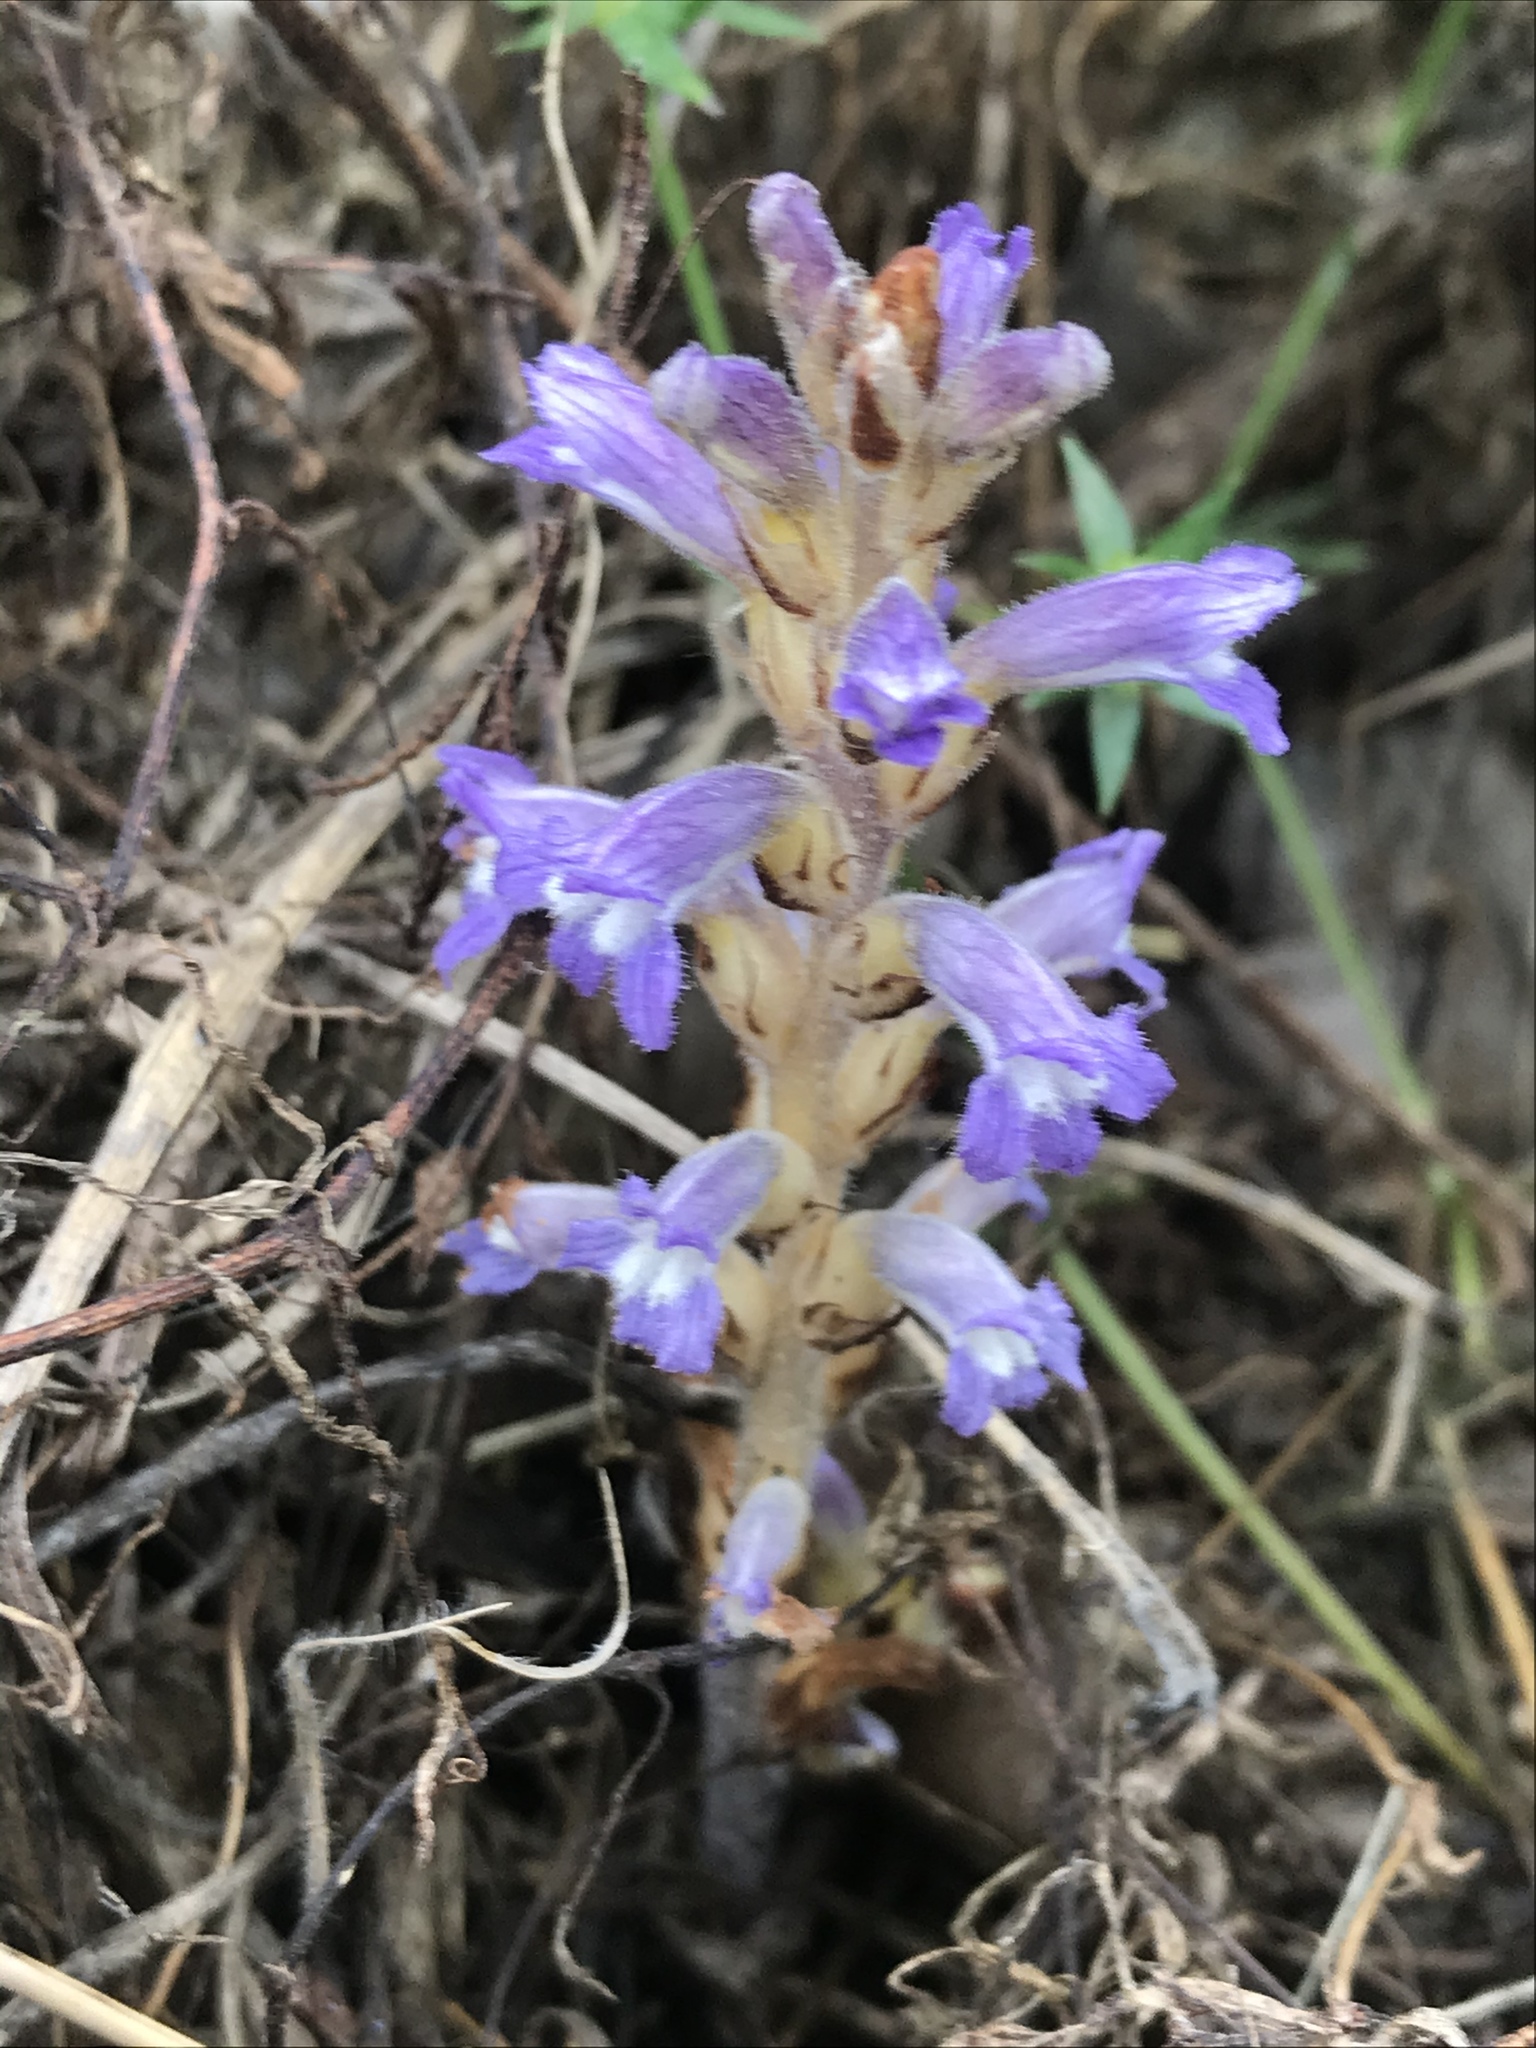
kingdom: Plantae
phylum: Tracheophyta
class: Magnoliopsida
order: Lamiales
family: Orobanchaceae
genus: Phelipanche
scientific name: Phelipanche mutelii
